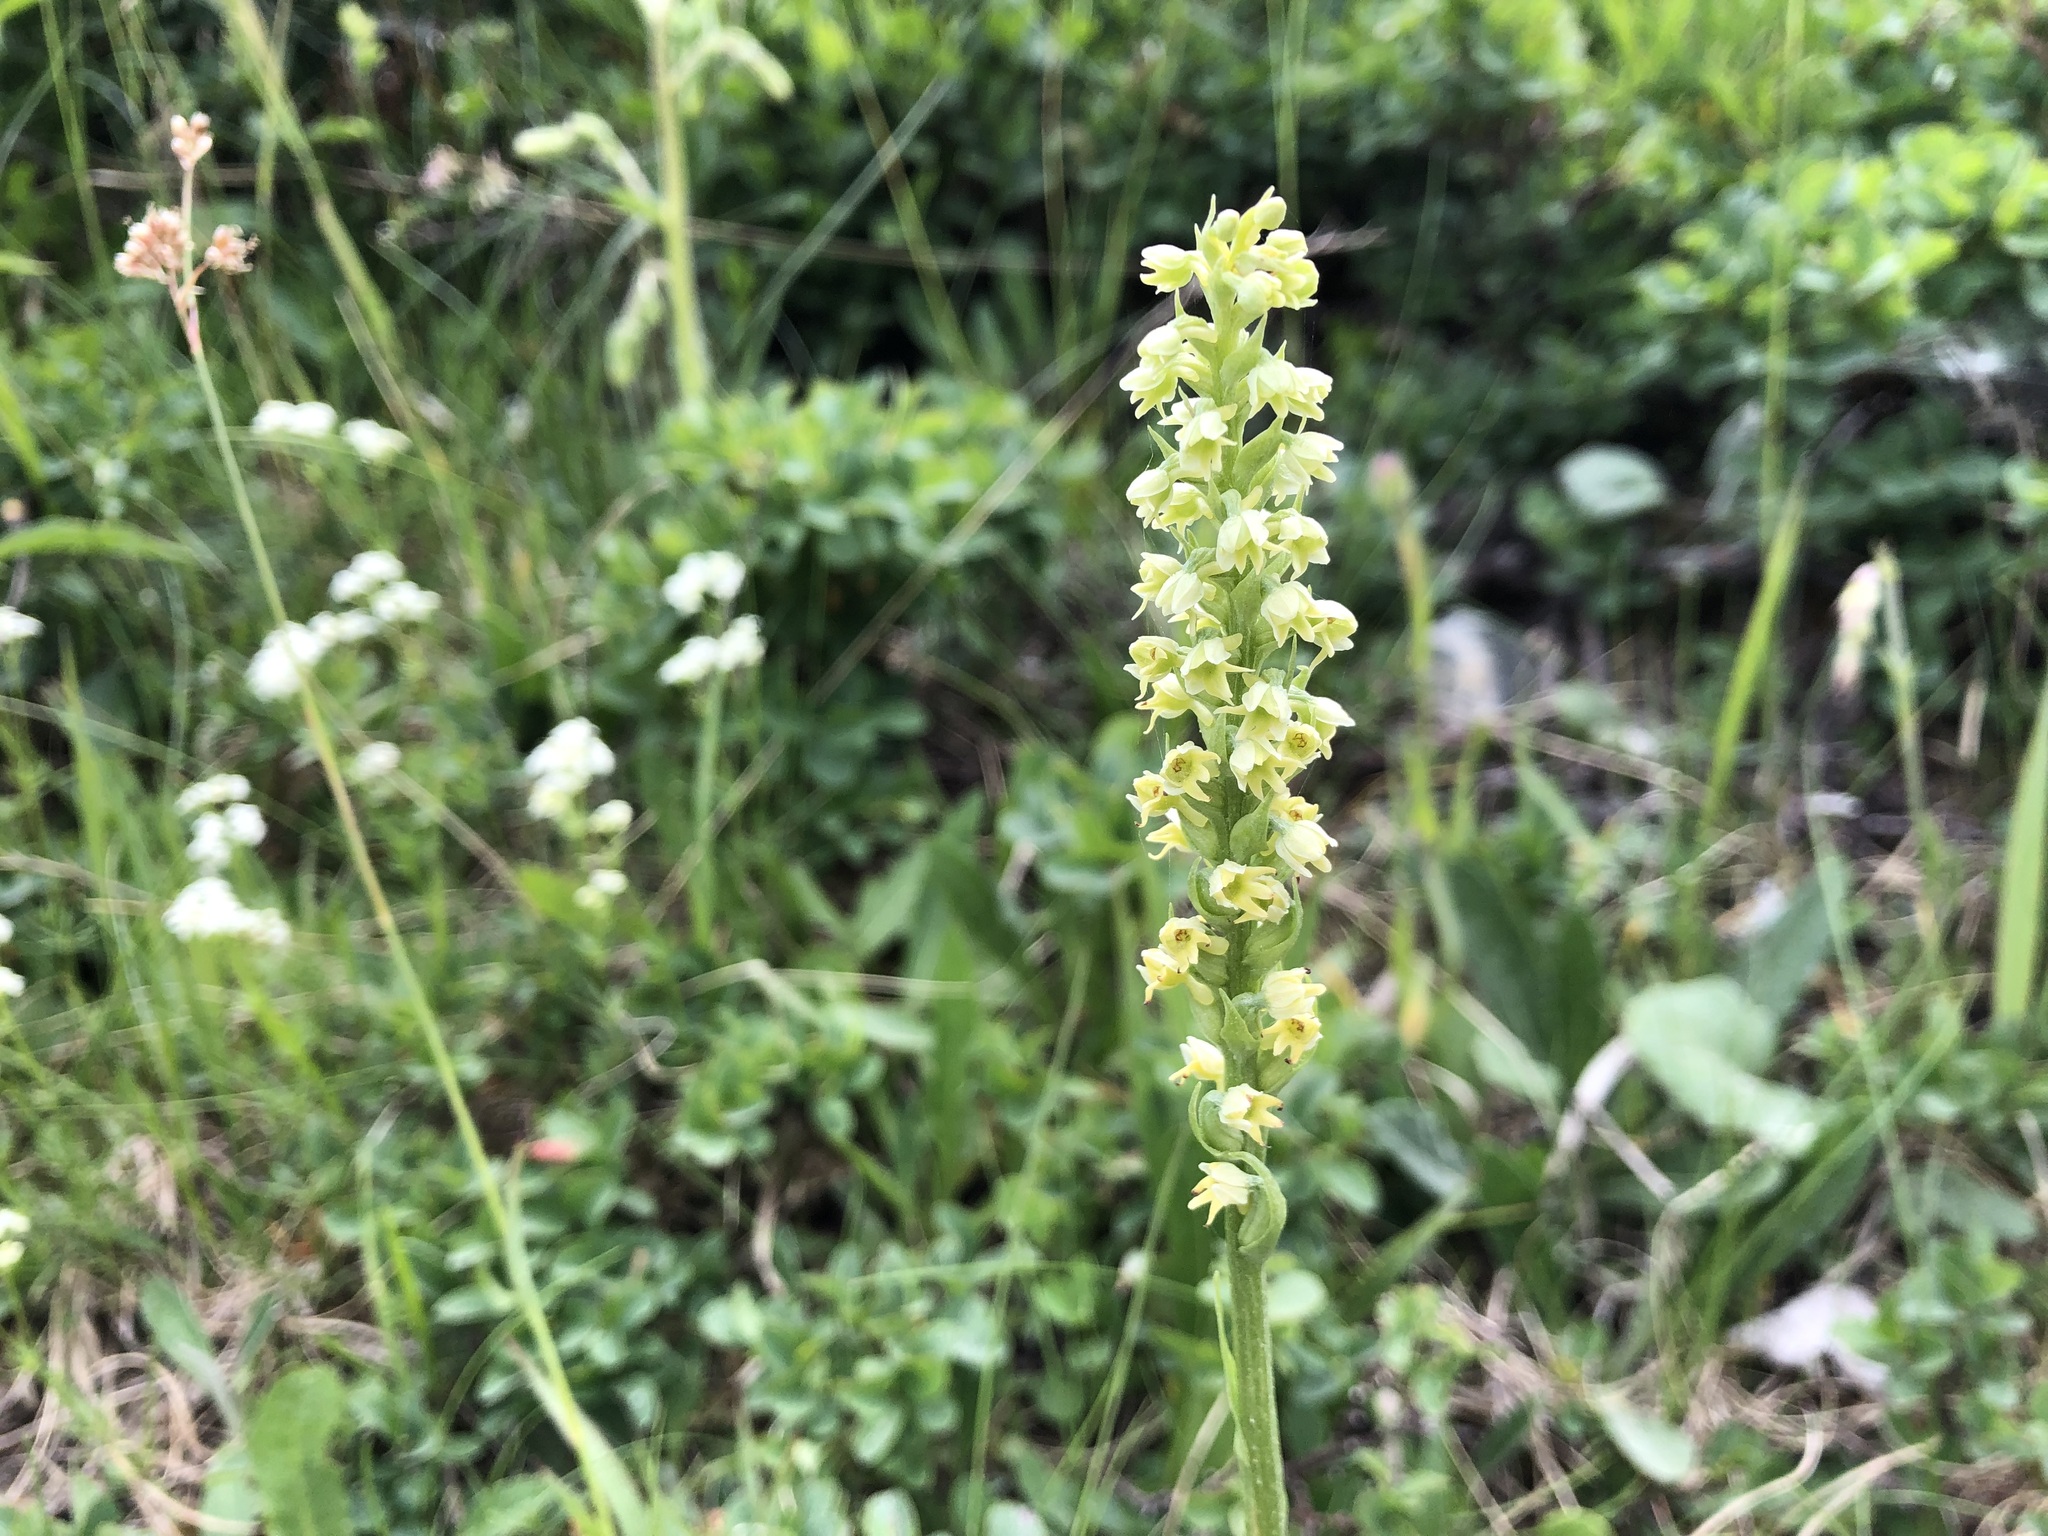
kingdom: Plantae
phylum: Tracheophyta
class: Liliopsida
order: Asparagales
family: Orchidaceae
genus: Pseudorchis
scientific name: Pseudorchis albida
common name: Small-white orchid
